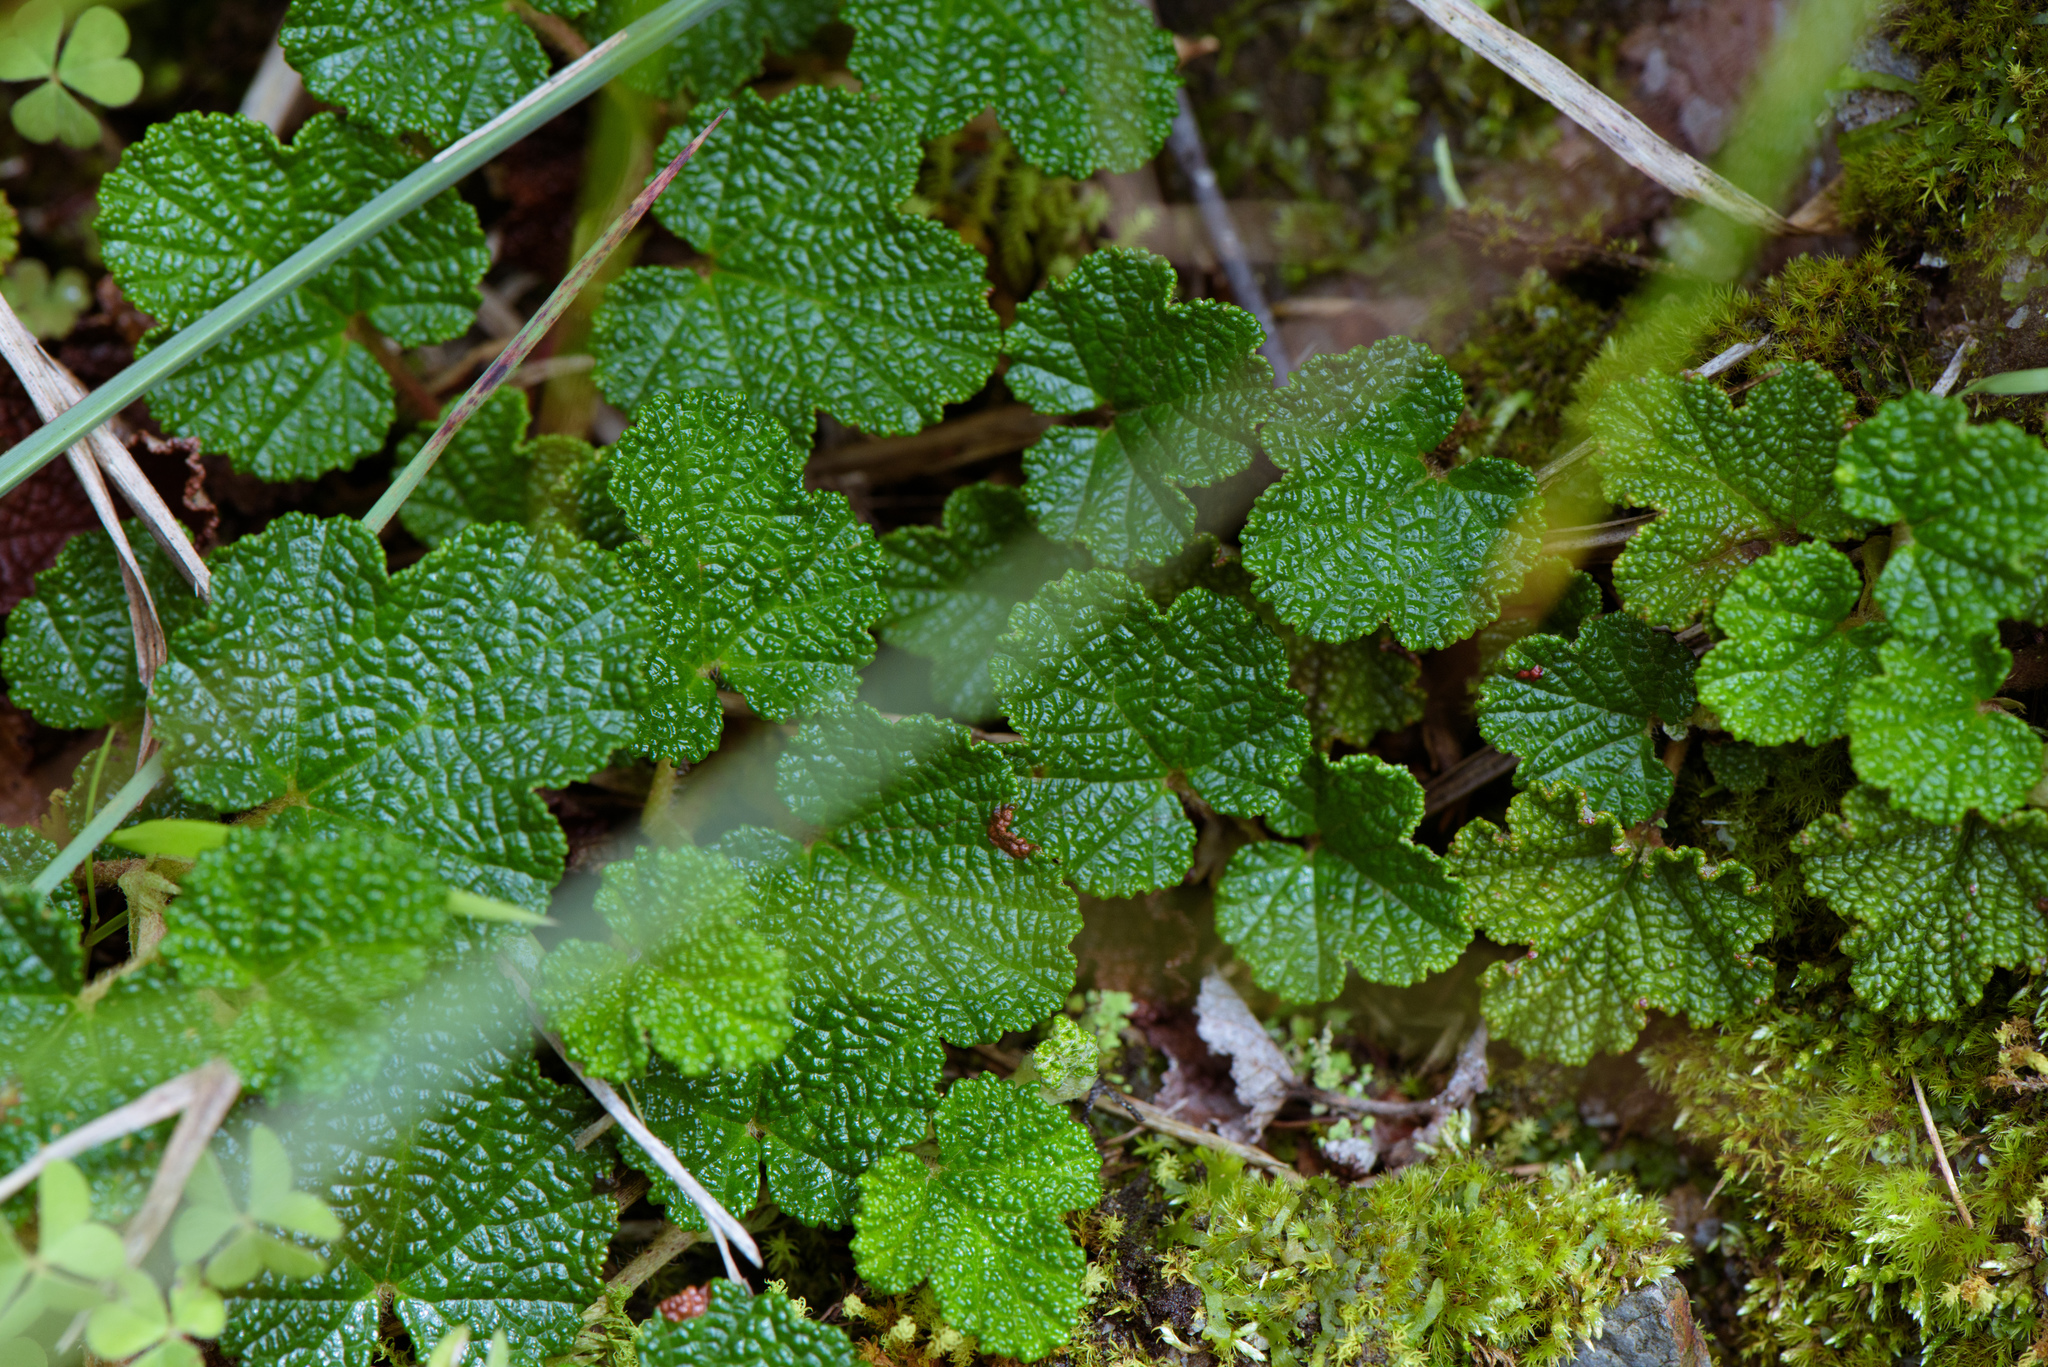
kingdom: Plantae
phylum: Tracheophyta
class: Magnoliopsida
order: Rosales
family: Rosaceae
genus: Rubus
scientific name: Rubus rolfei
